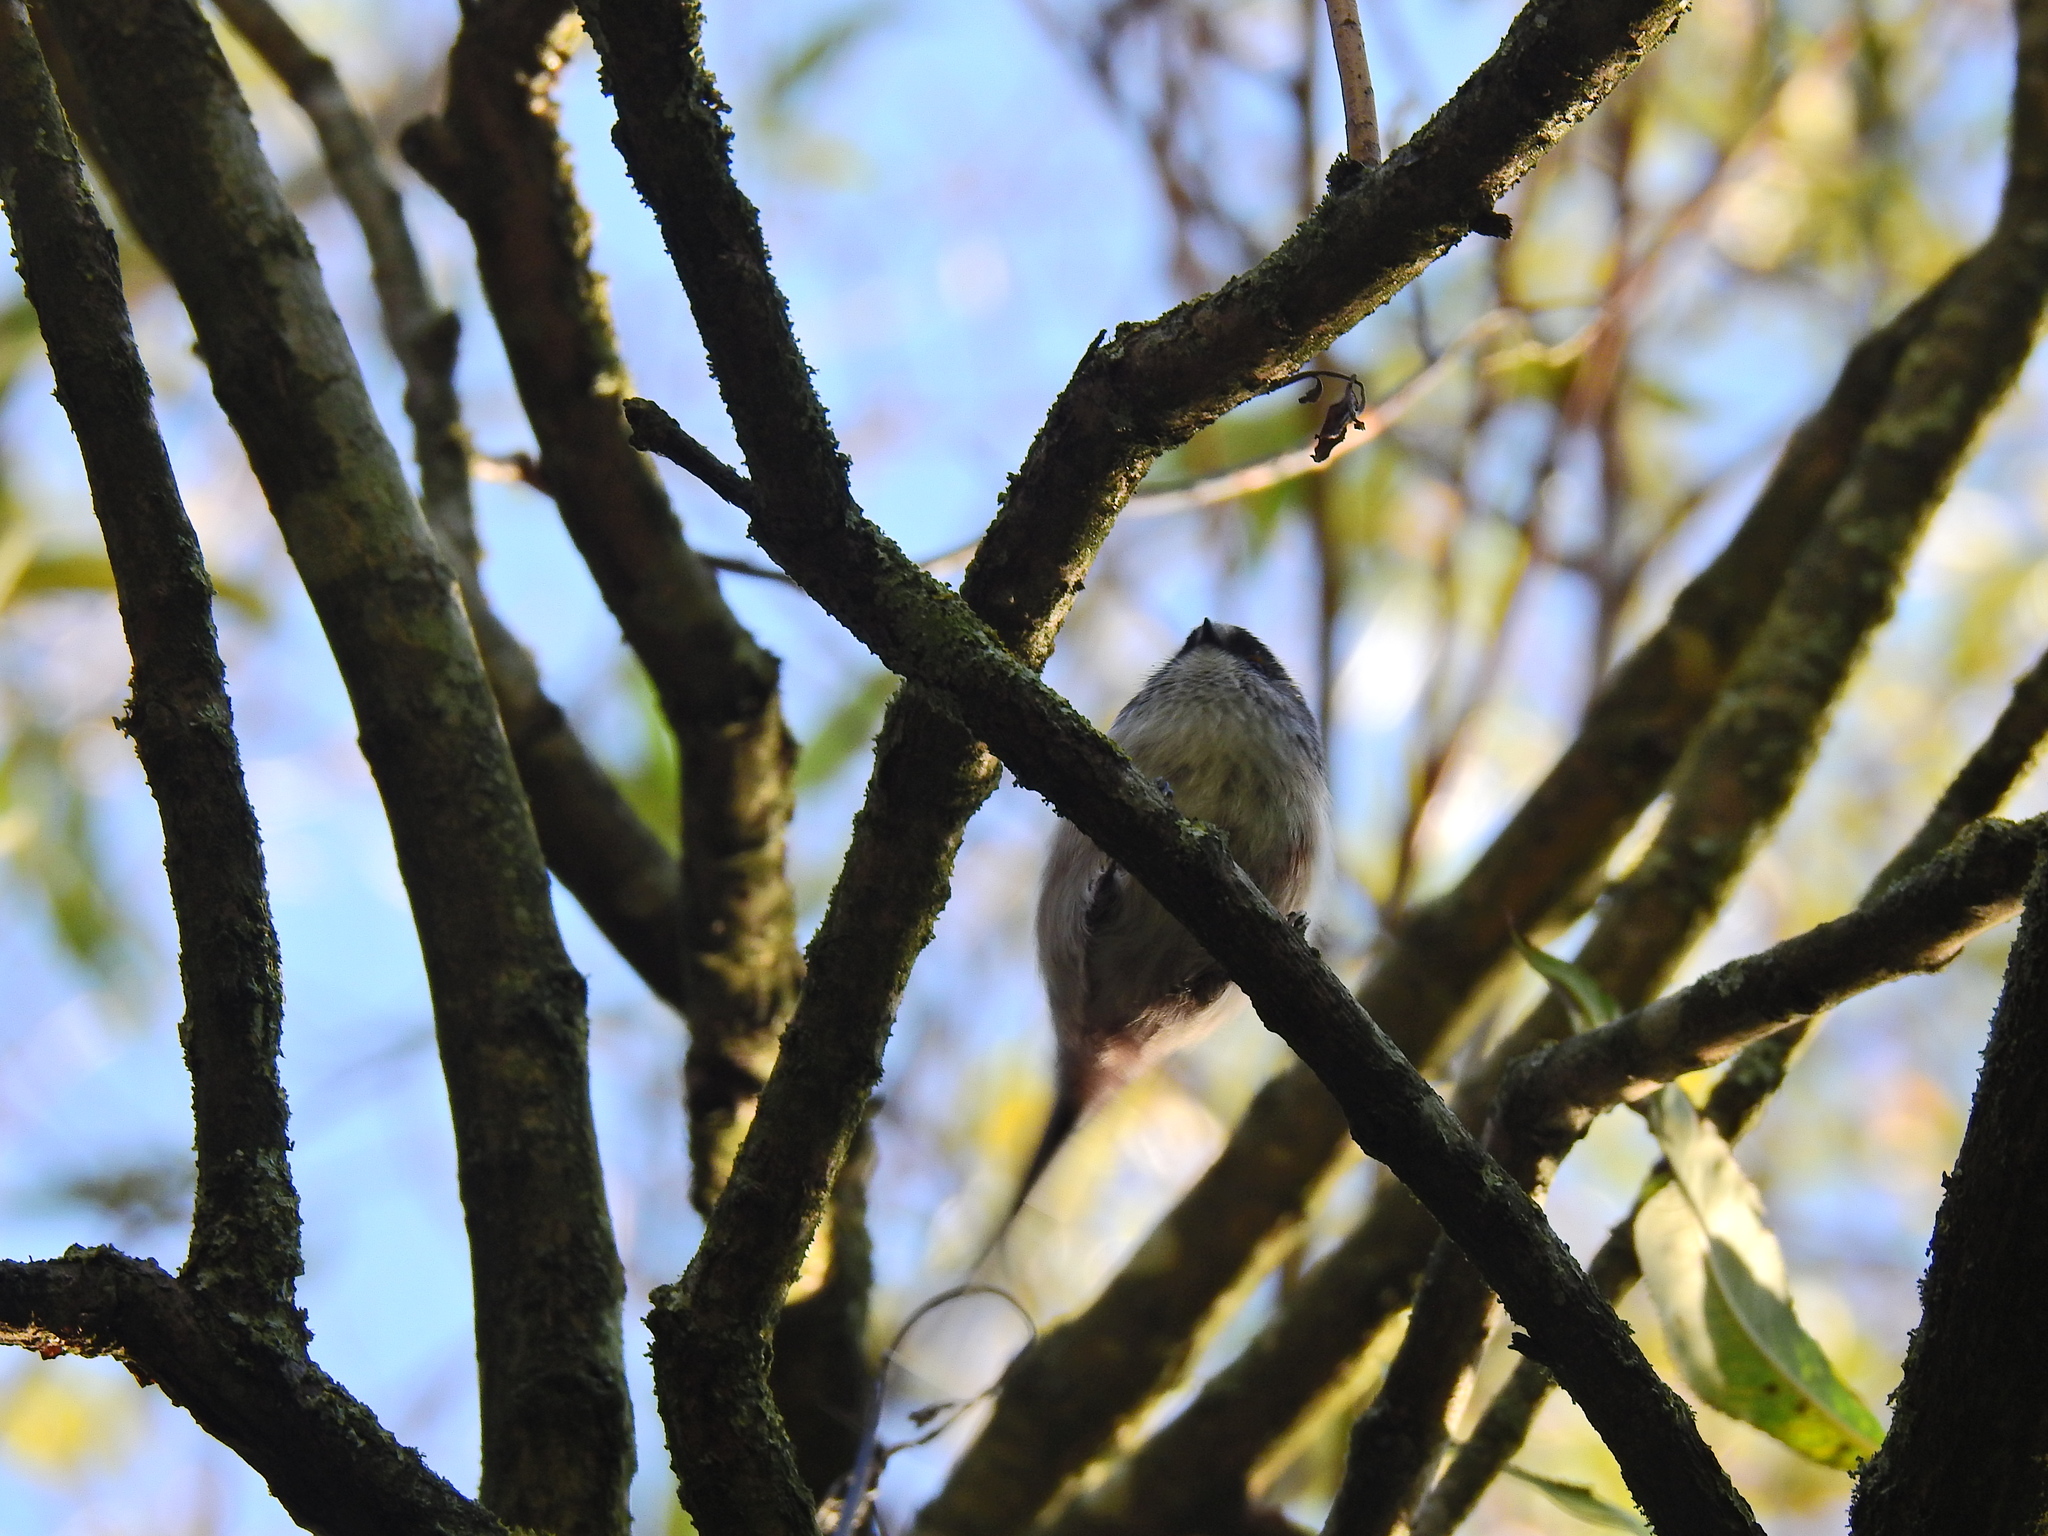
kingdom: Animalia
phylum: Chordata
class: Aves
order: Passeriformes
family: Aegithalidae
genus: Aegithalos
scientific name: Aegithalos caudatus
